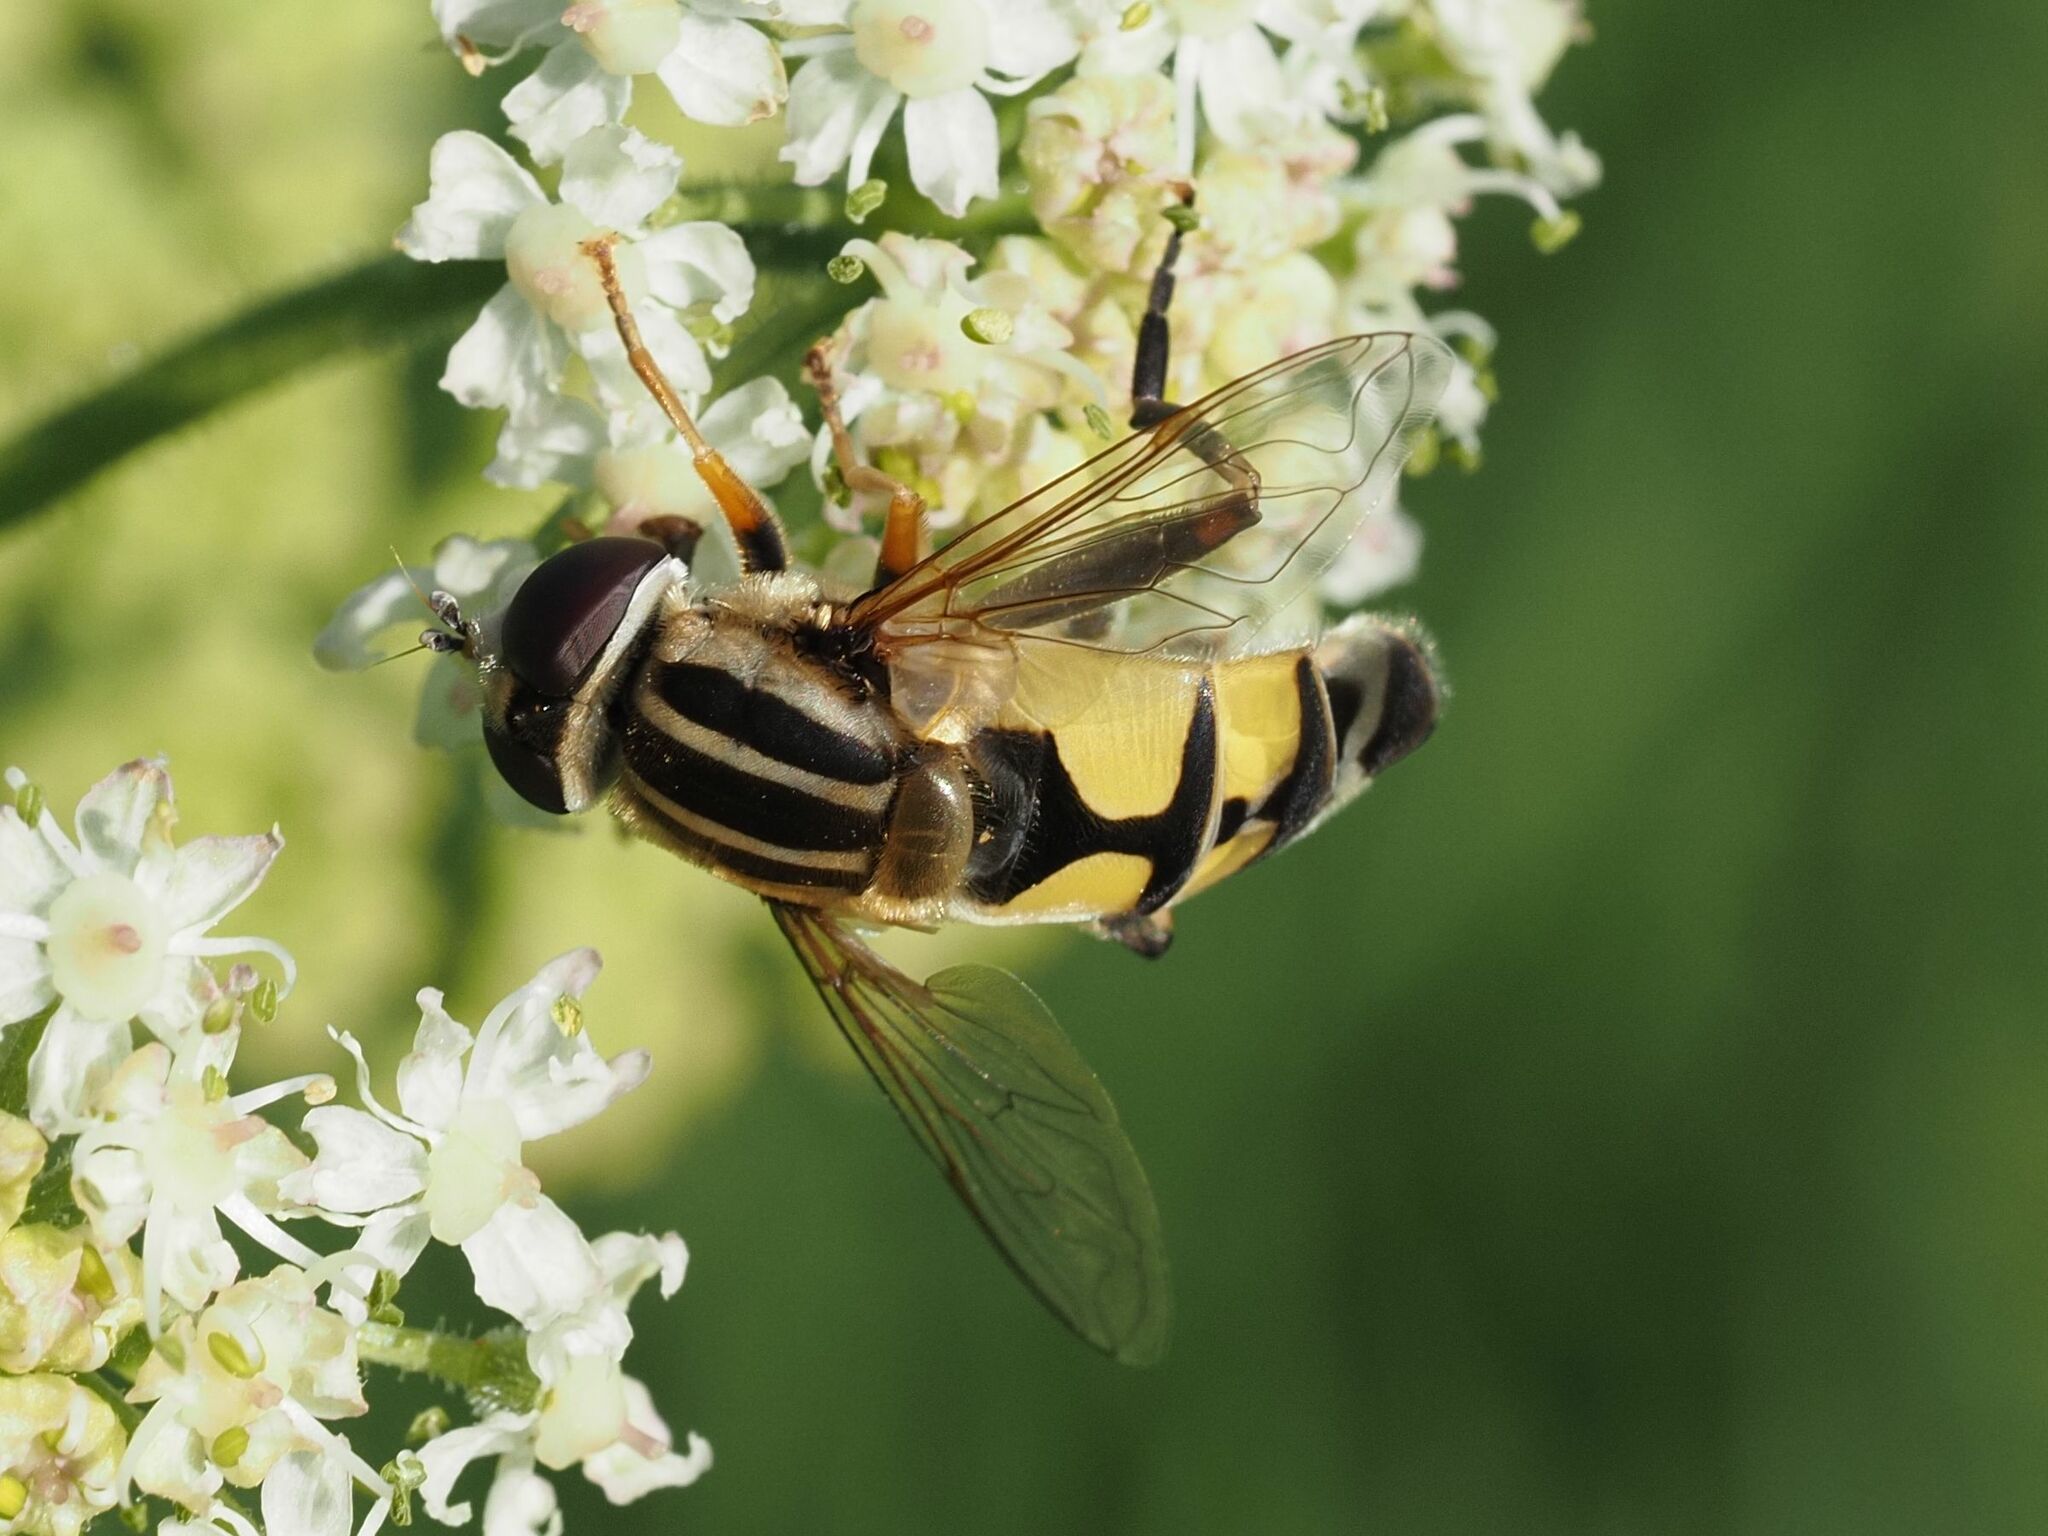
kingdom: Animalia
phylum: Arthropoda
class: Insecta
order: Diptera
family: Syrphidae
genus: Helophilus
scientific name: Helophilus trivittatus
